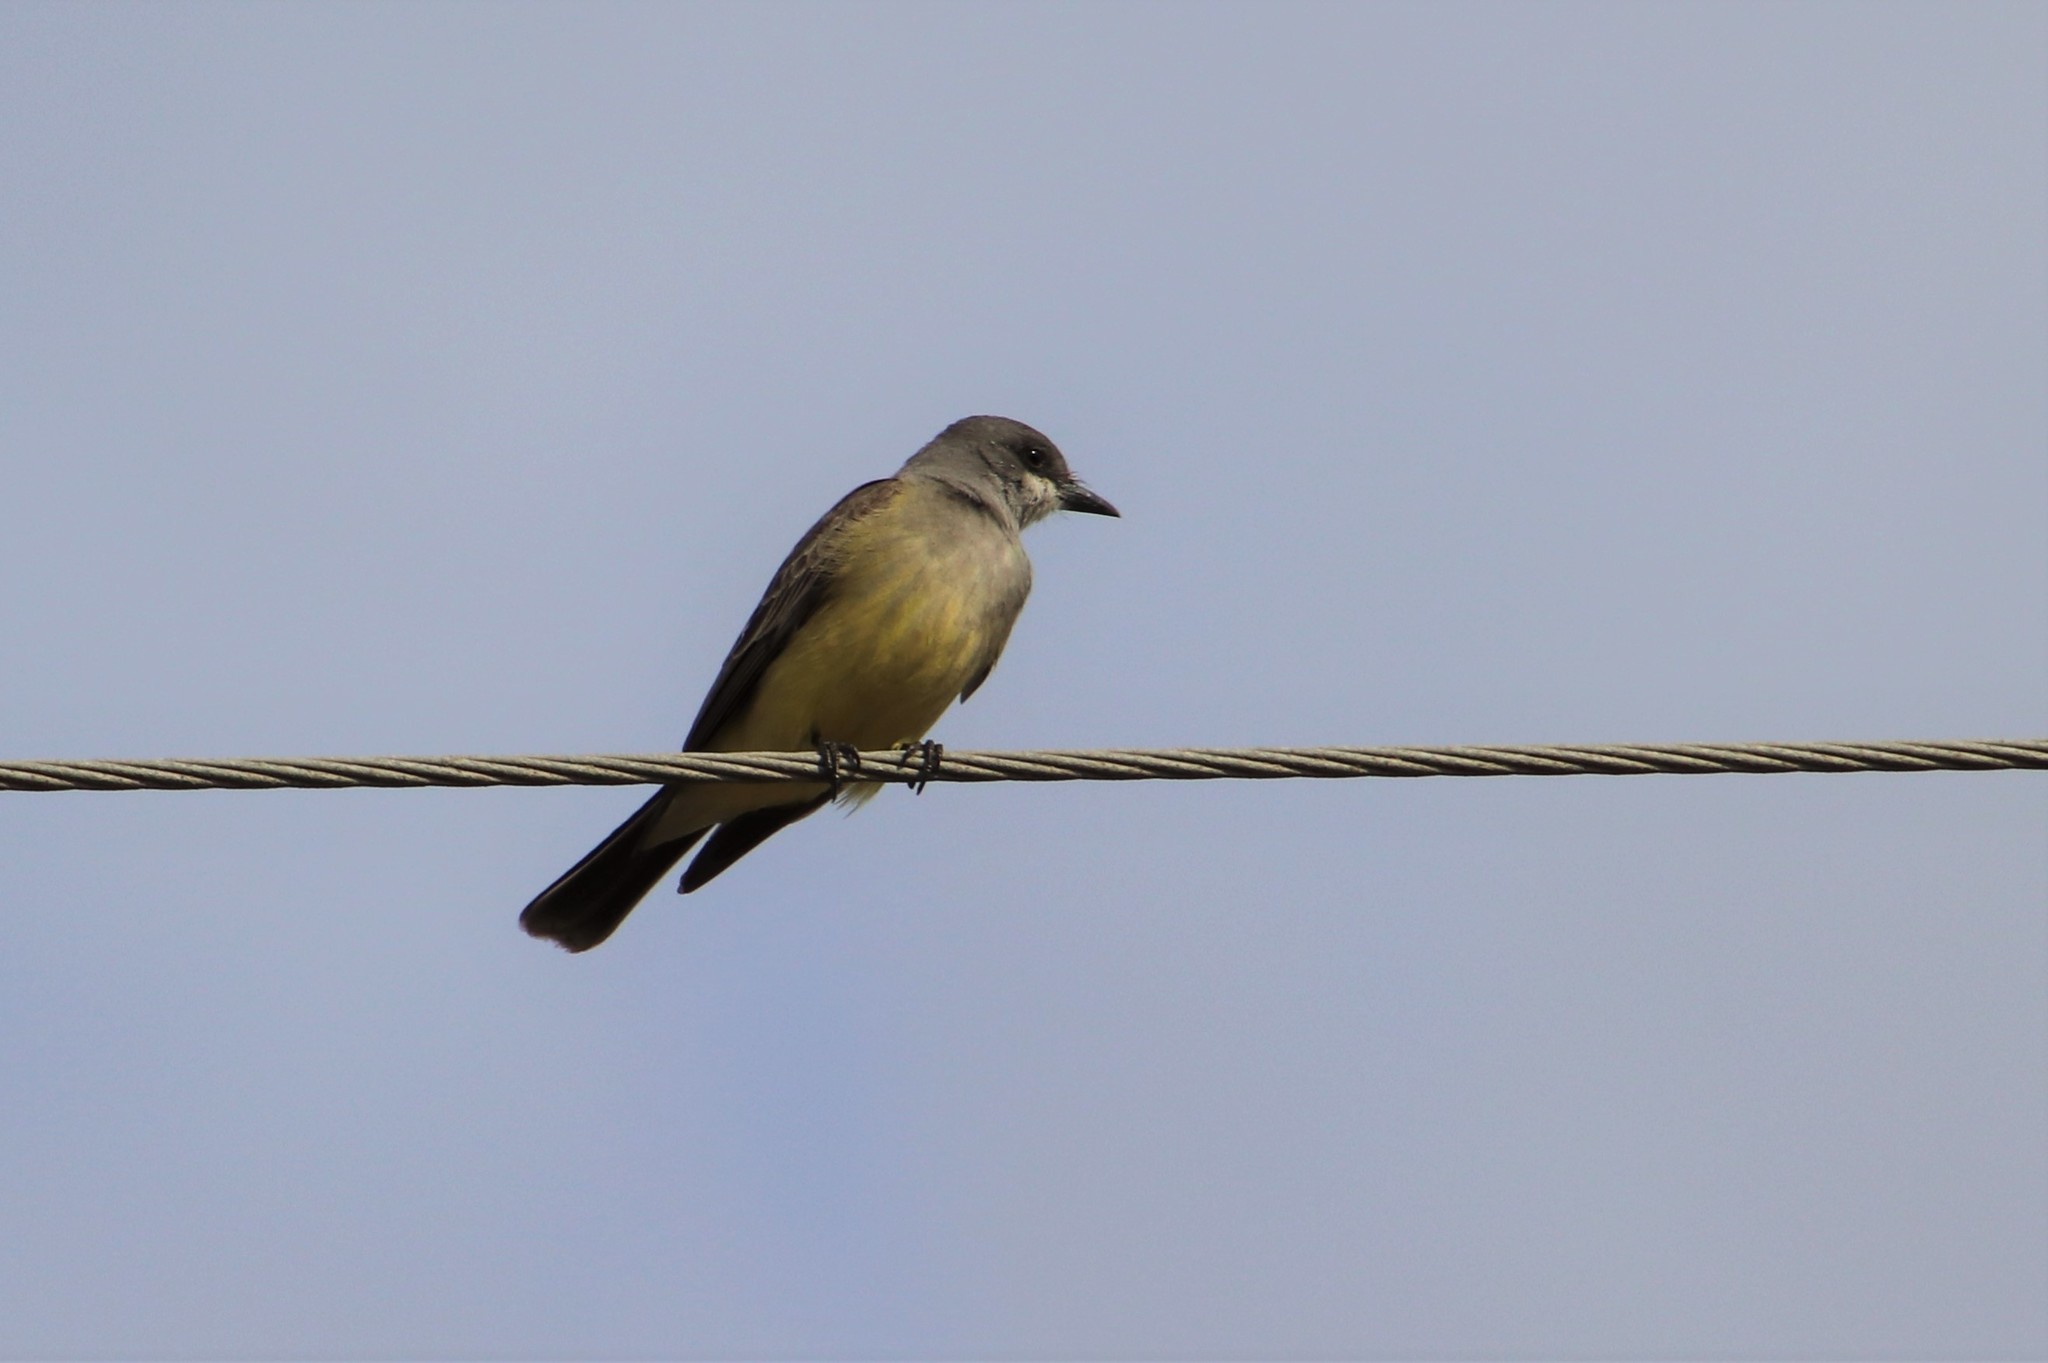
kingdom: Animalia
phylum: Chordata
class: Aves
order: Passeriformes
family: Tyrannidae
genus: Tyrannus
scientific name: Tyrannus vociferans
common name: Cassin's kingbird
